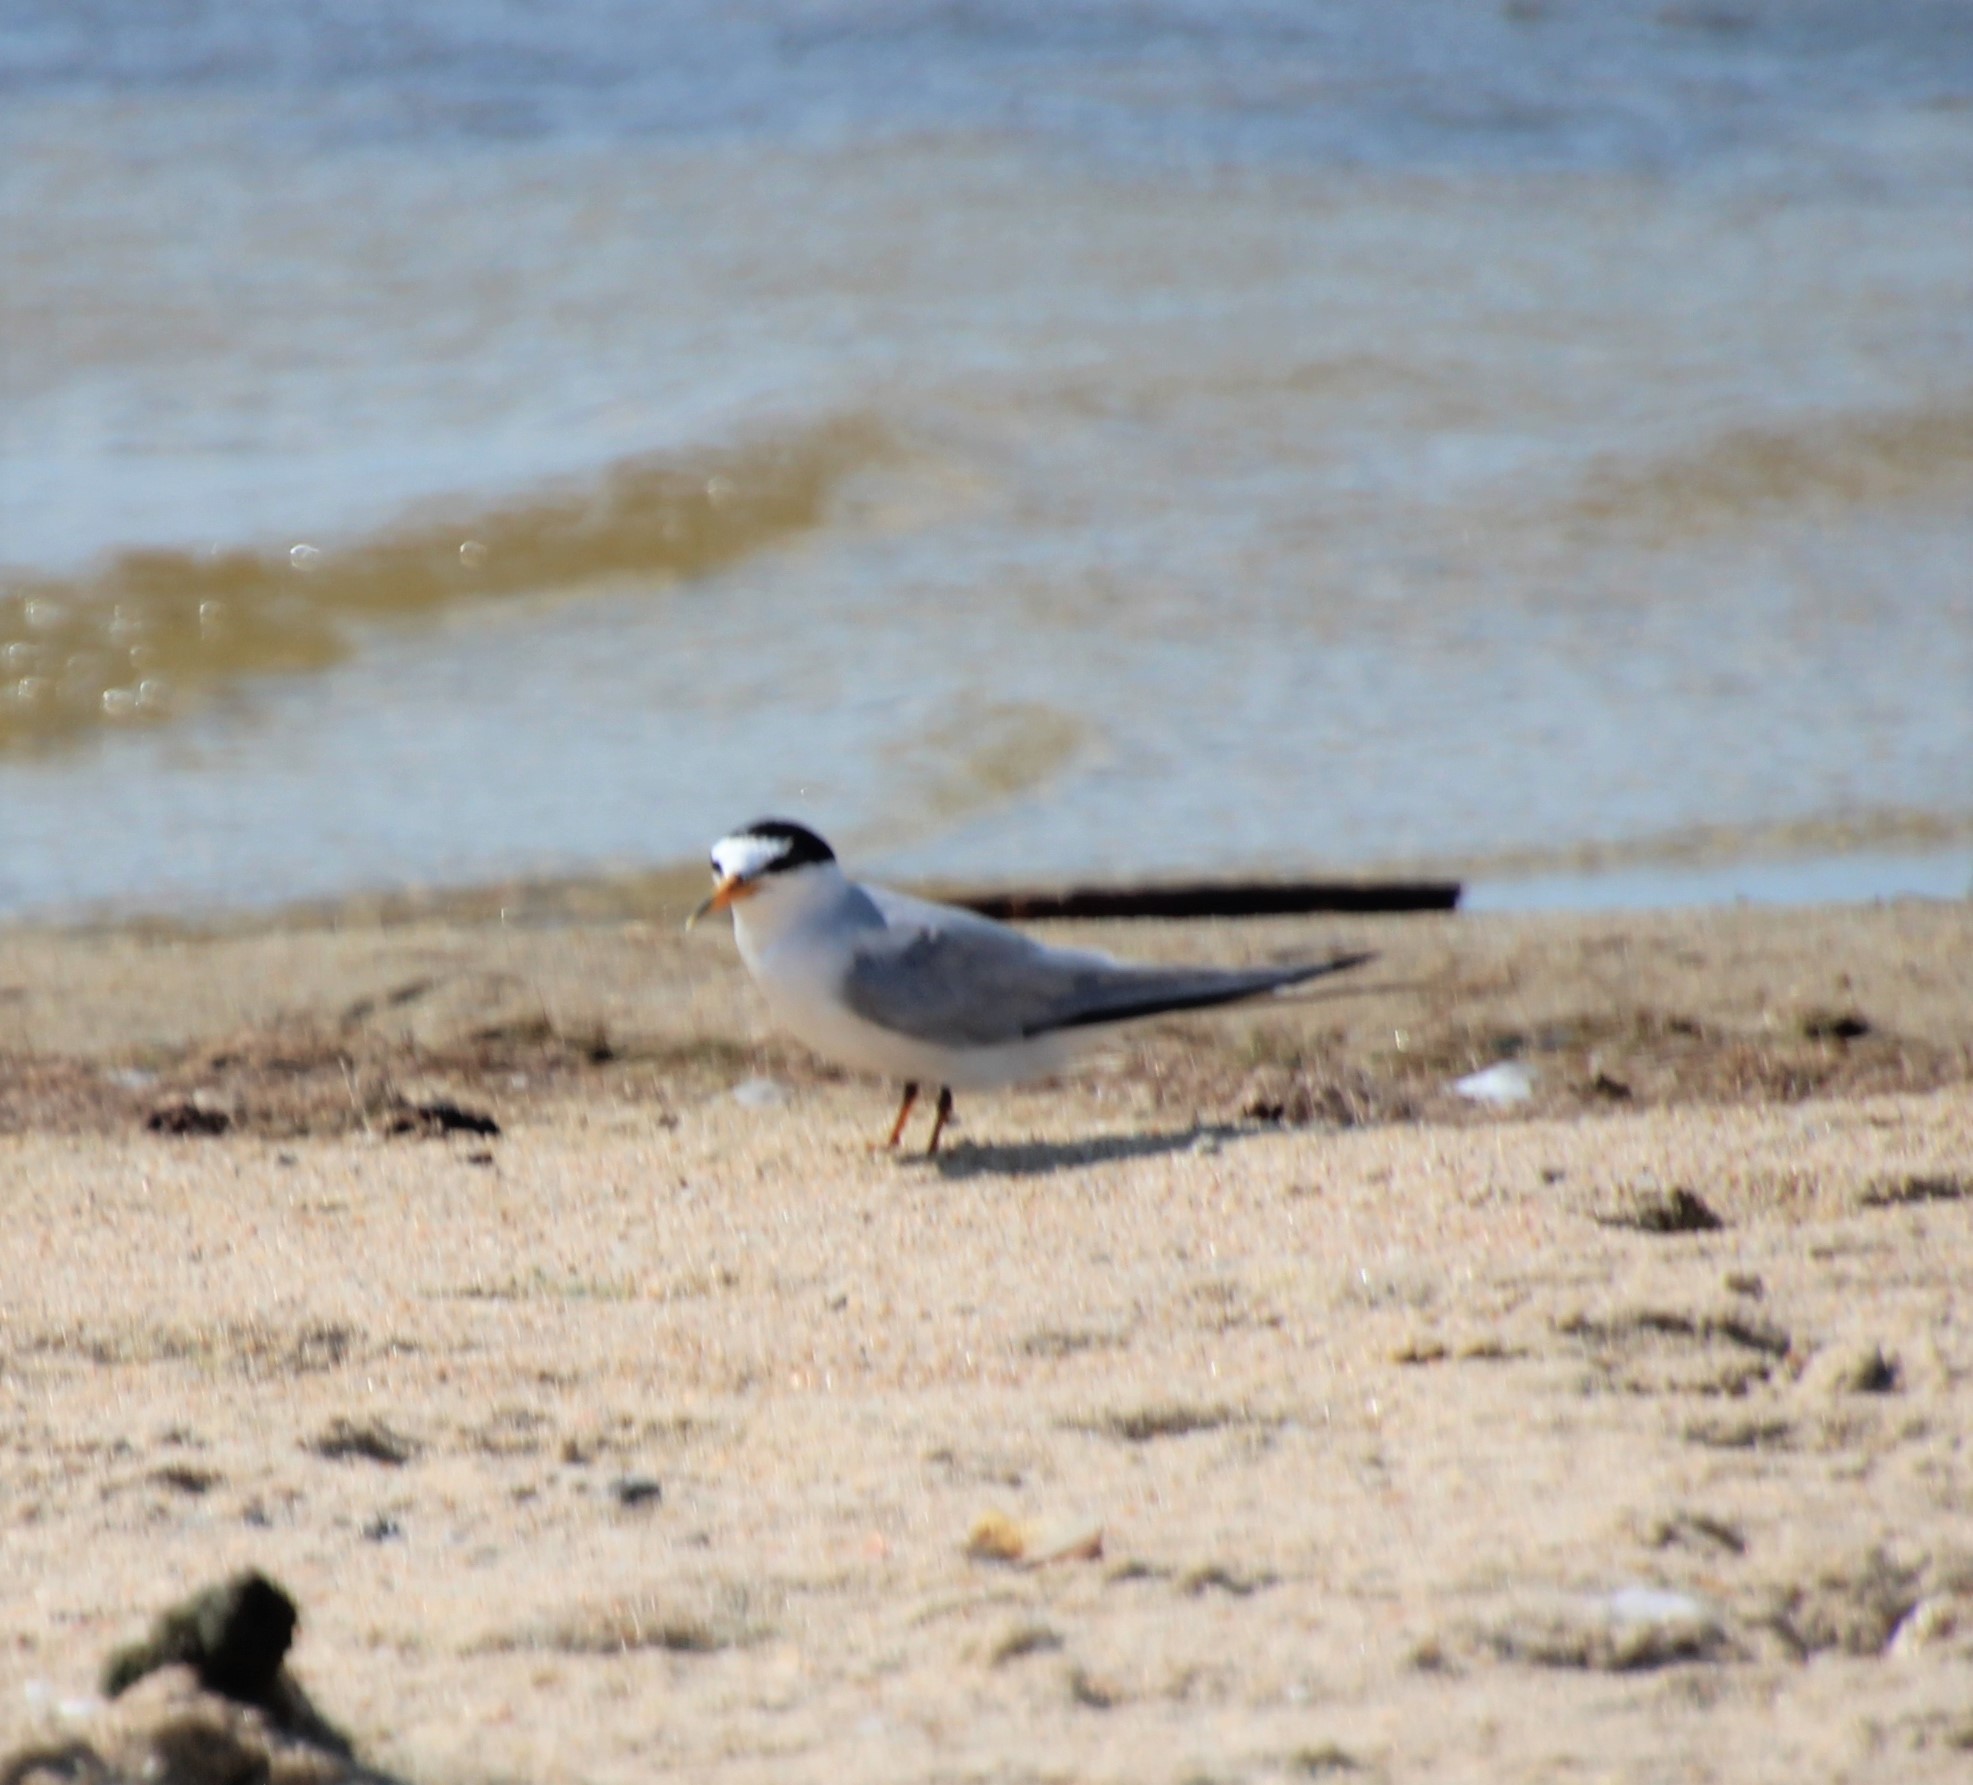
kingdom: Animalia
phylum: Chordata
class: Aves
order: Charadriiformes
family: Laridae
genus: Sternula
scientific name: Sternula antillarum
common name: Least tern
